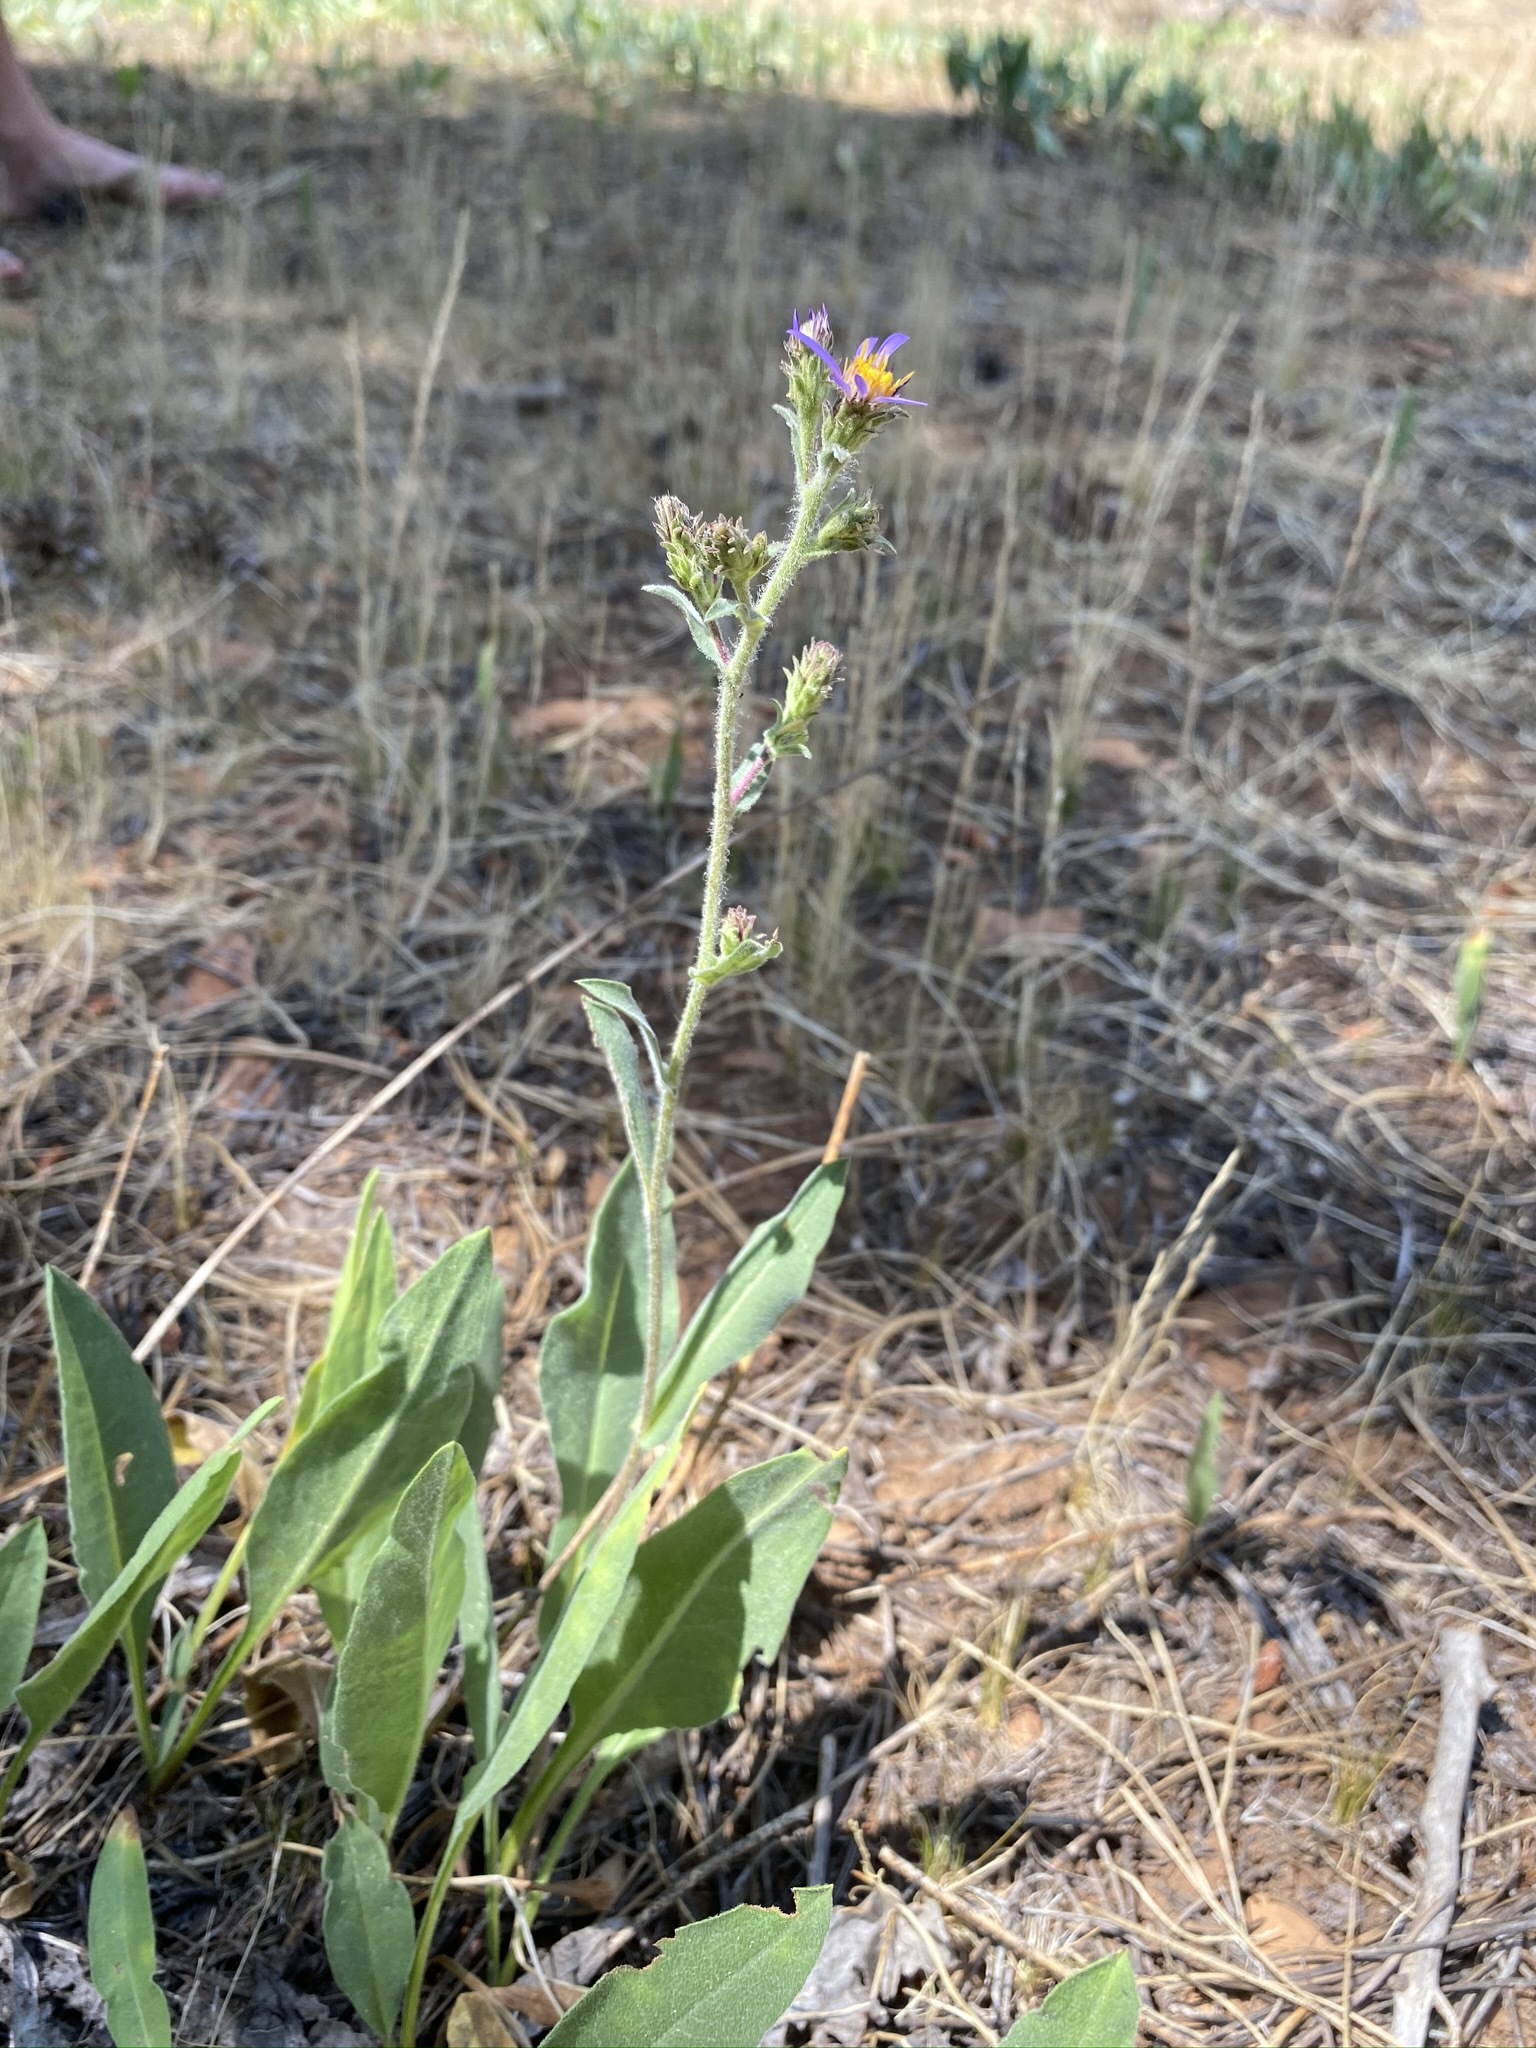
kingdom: Plantae
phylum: Tracheophyta
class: Magnoliopsida
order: Asterales
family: Asteraceae
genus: Eurybia
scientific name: Eurybia integrifolia
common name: Thick-stem aster
